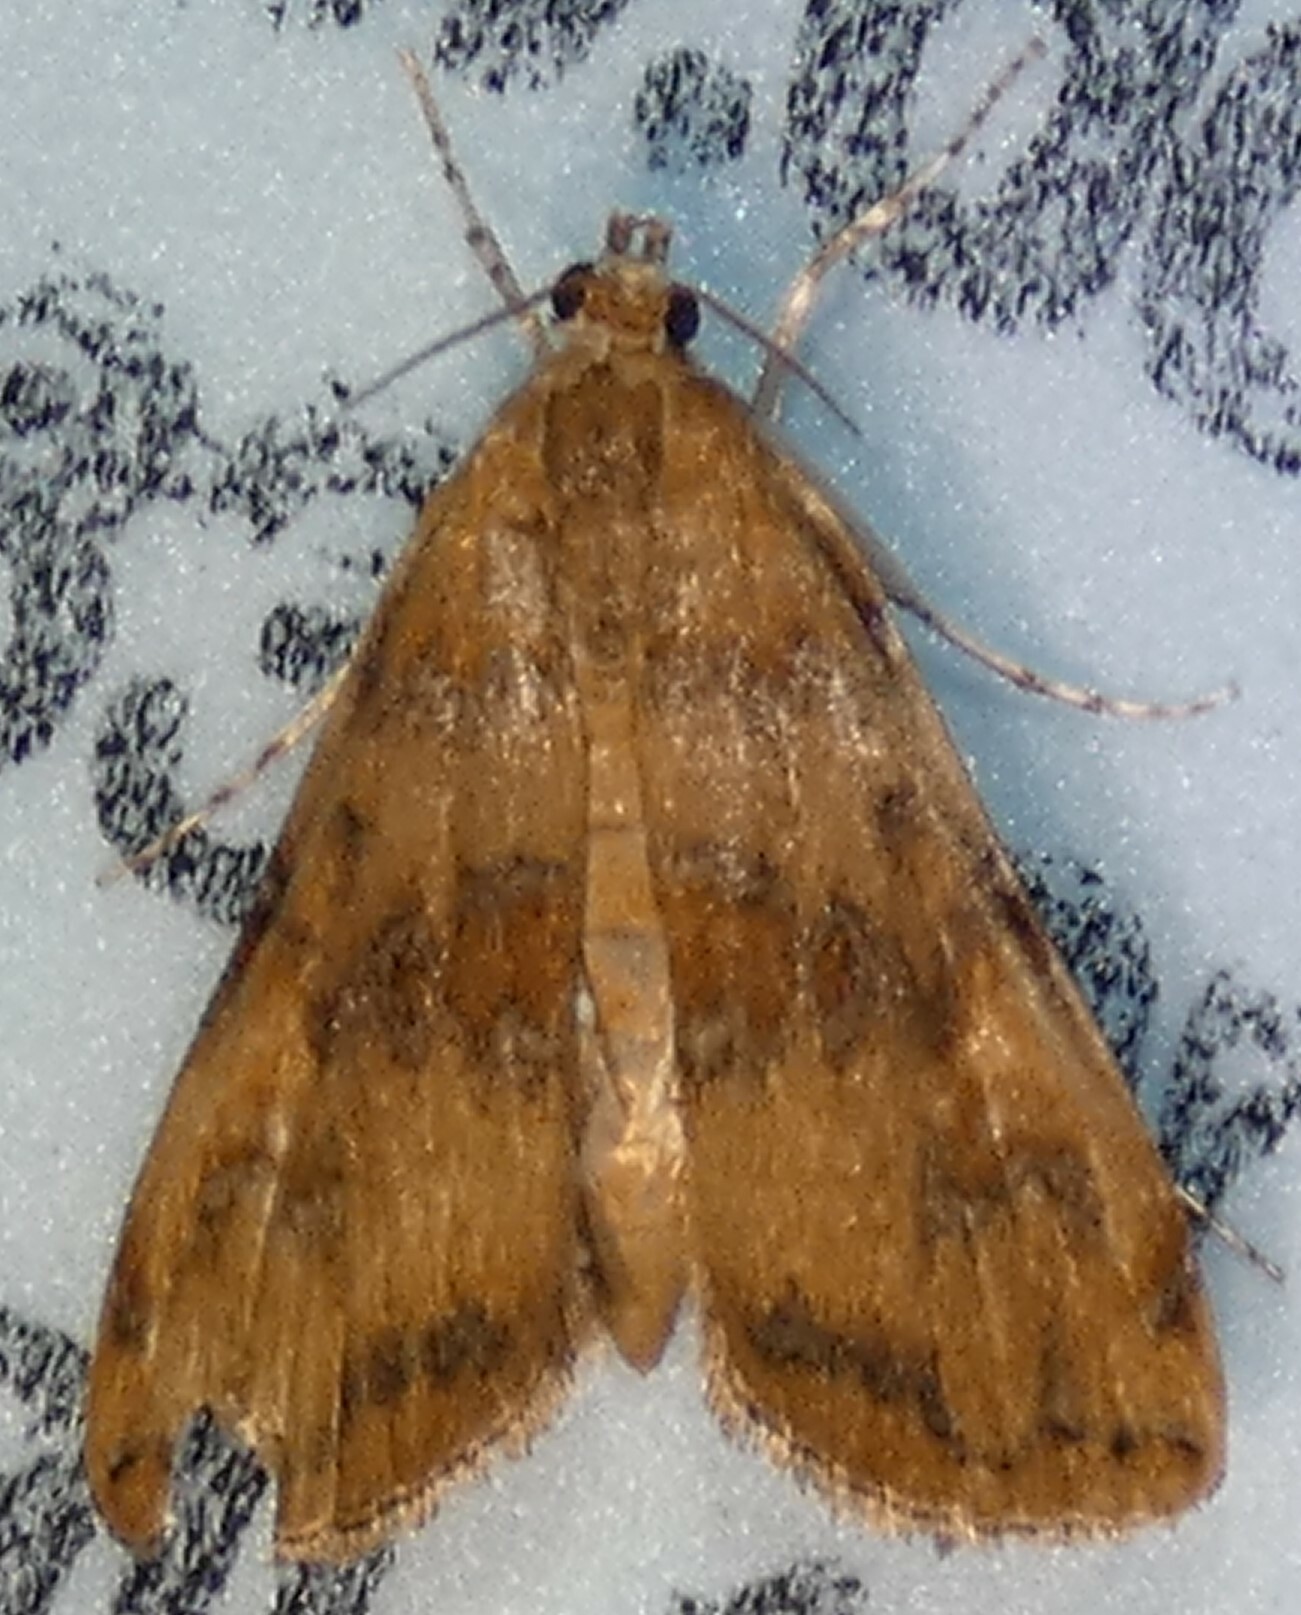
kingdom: Animalia
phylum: Arthropoda
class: Insecta
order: Lepidoptera
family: Crambidae
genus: Elophila
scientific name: Elophila gyralis
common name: Waterlily borer moth
